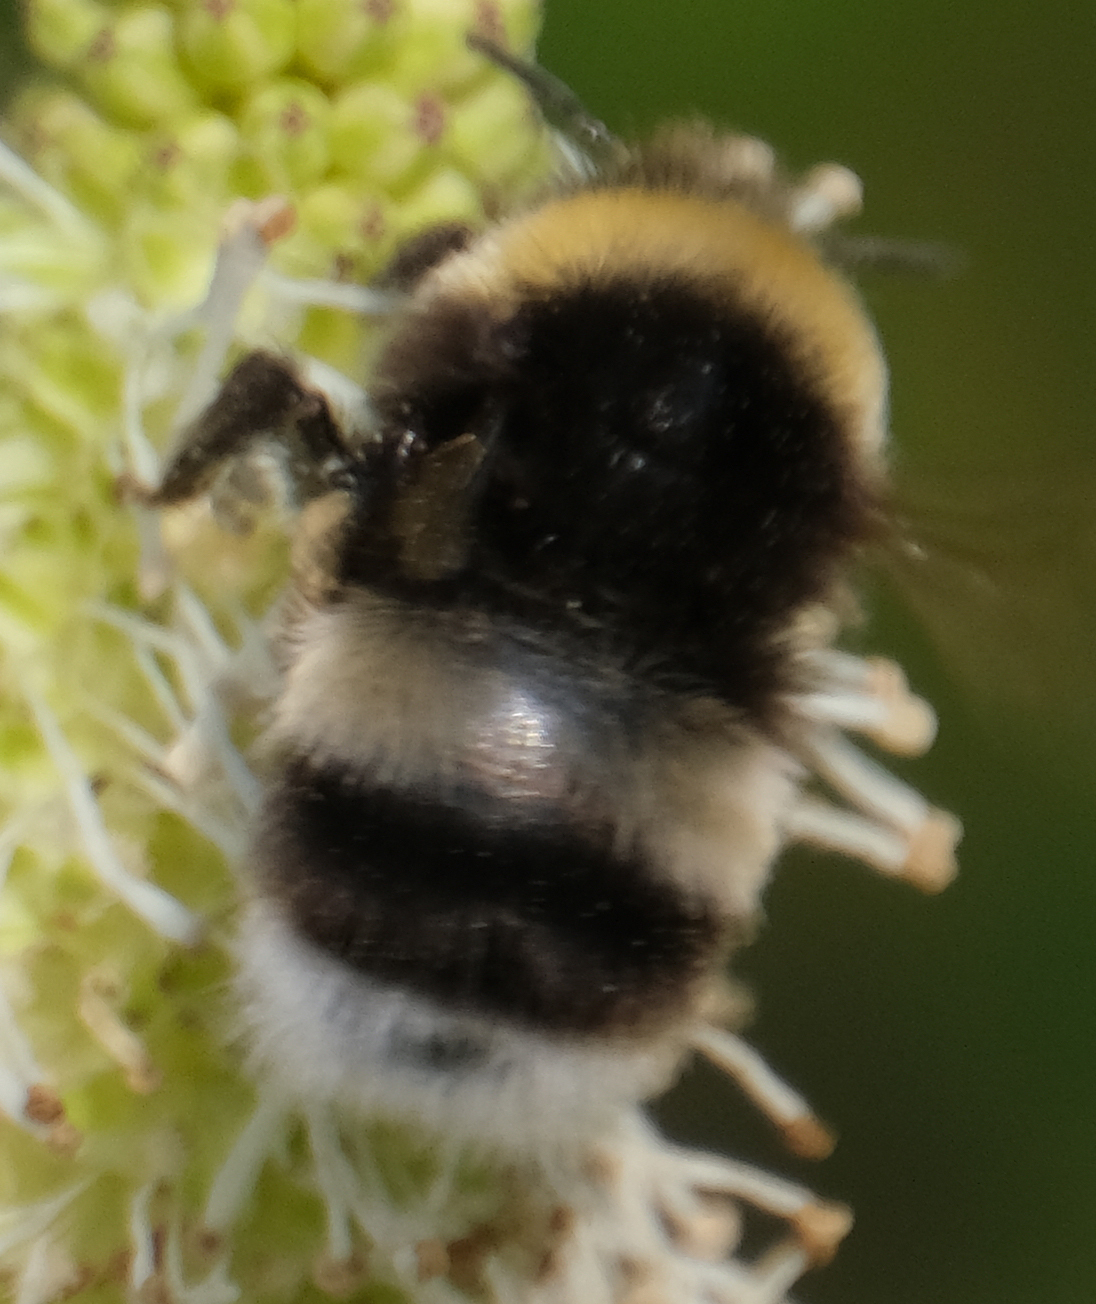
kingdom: Animalia
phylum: Arthropoda
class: Insecta
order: Hymenoptera
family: Apidae
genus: Bombus
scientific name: Bombus cryptarum
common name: Cryptic bumblebee
